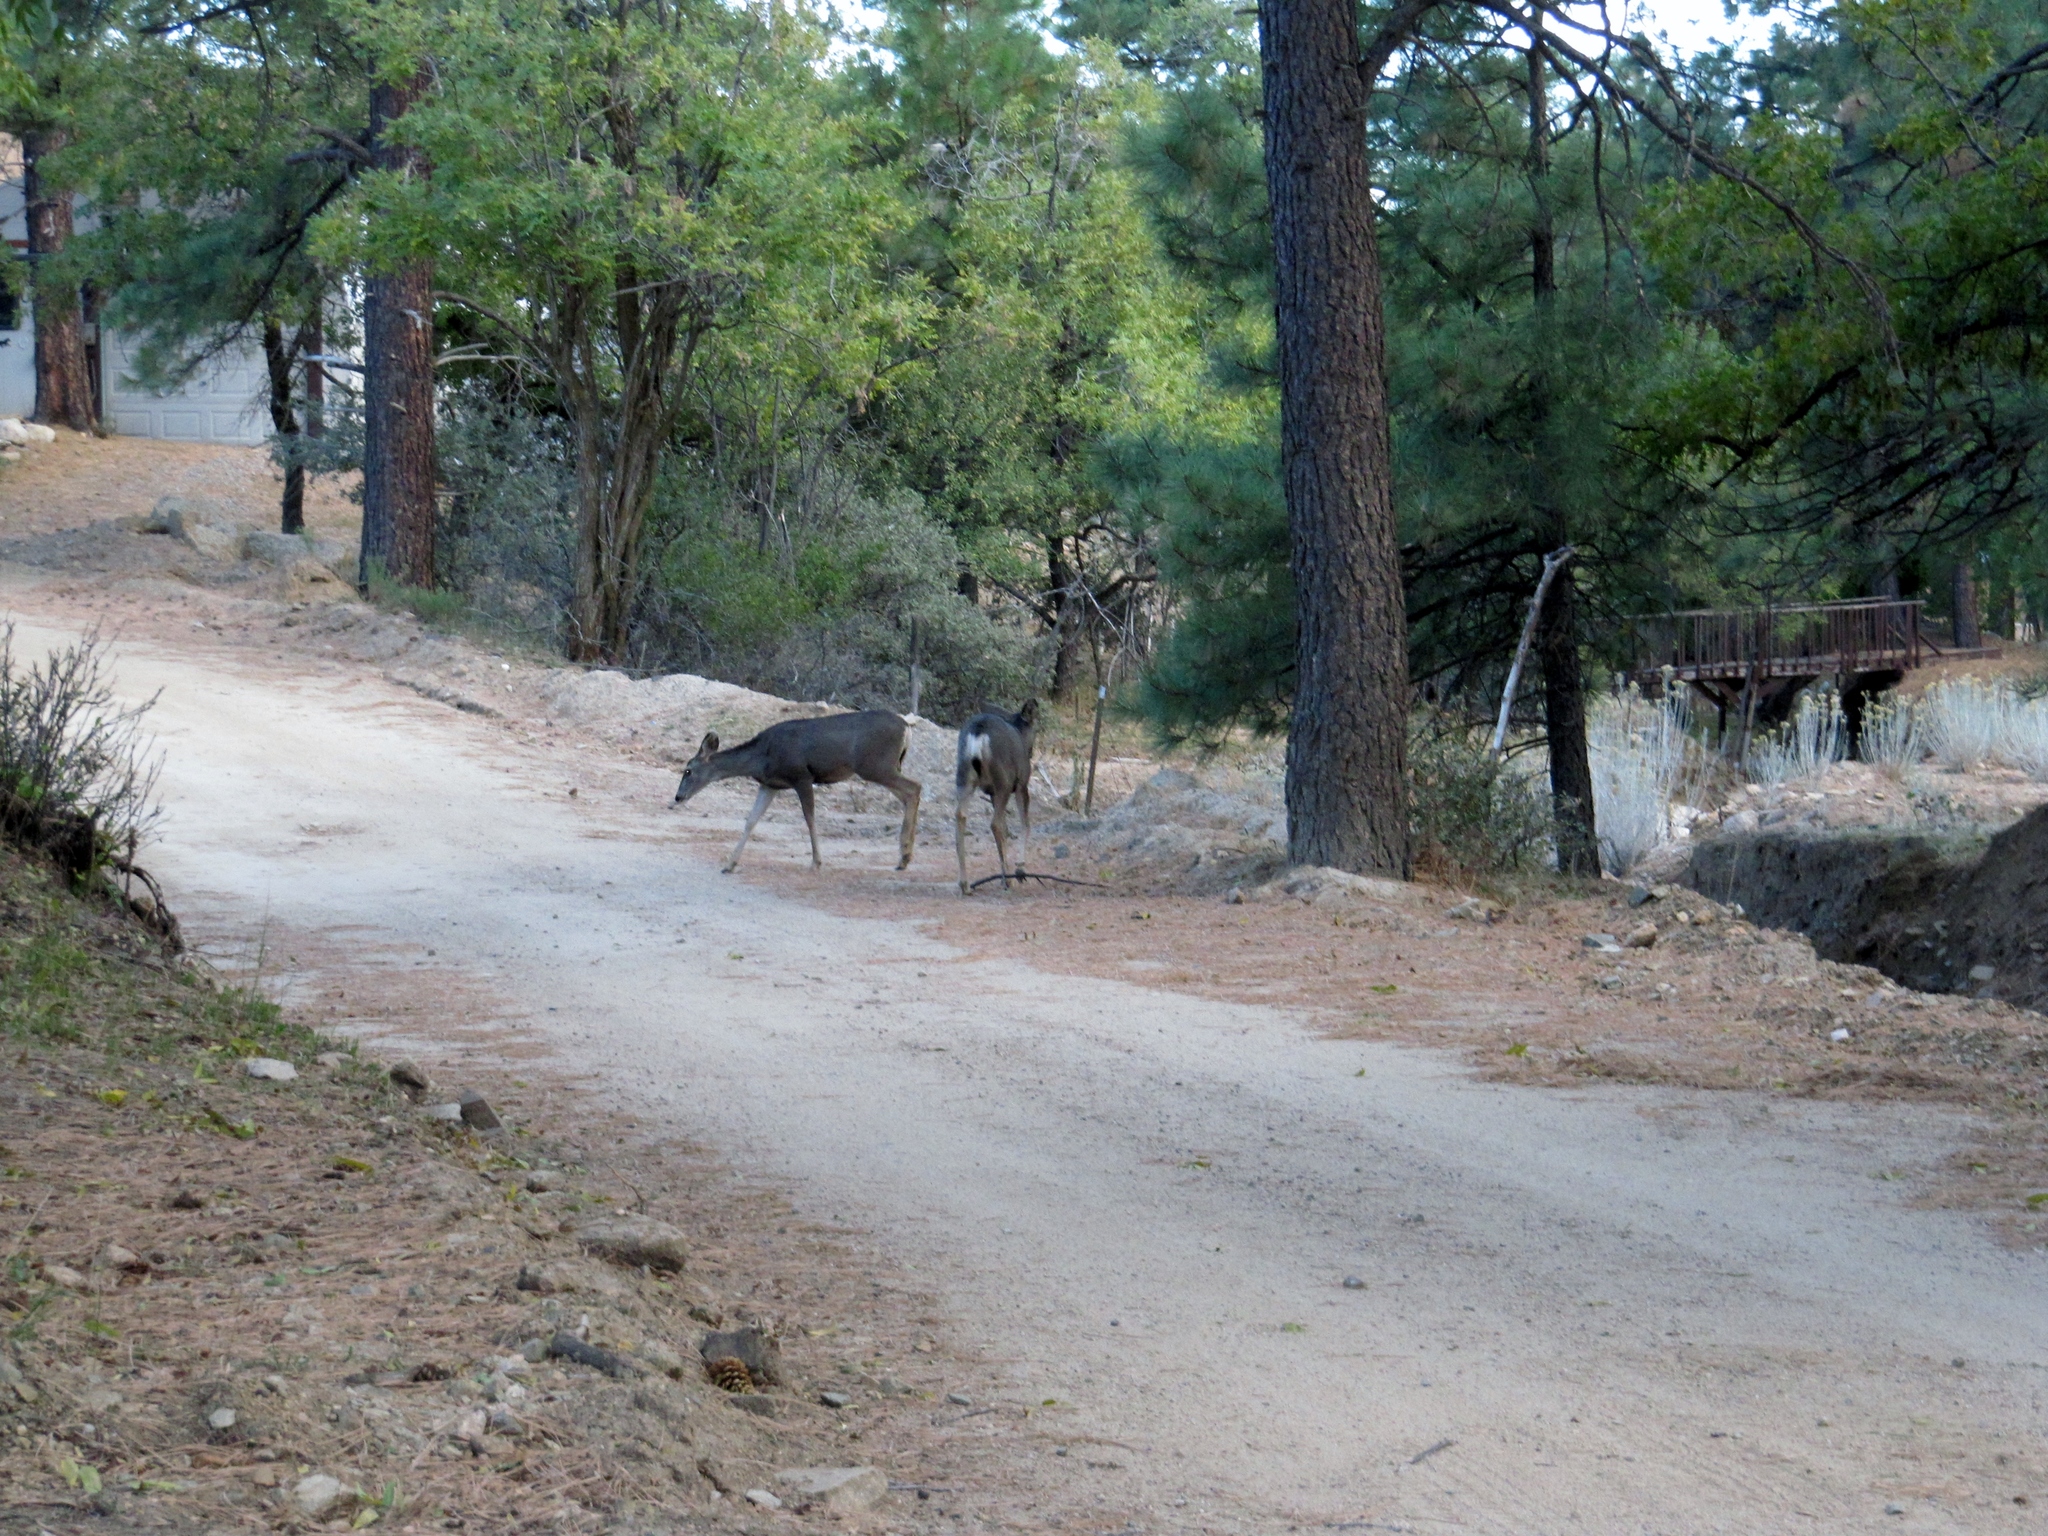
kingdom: Animalia
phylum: Chordata
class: Mammalia
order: Artiodactyla
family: Cervidae
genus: Odocoileus
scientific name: Odocoileus hemionus
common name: Mule deer
